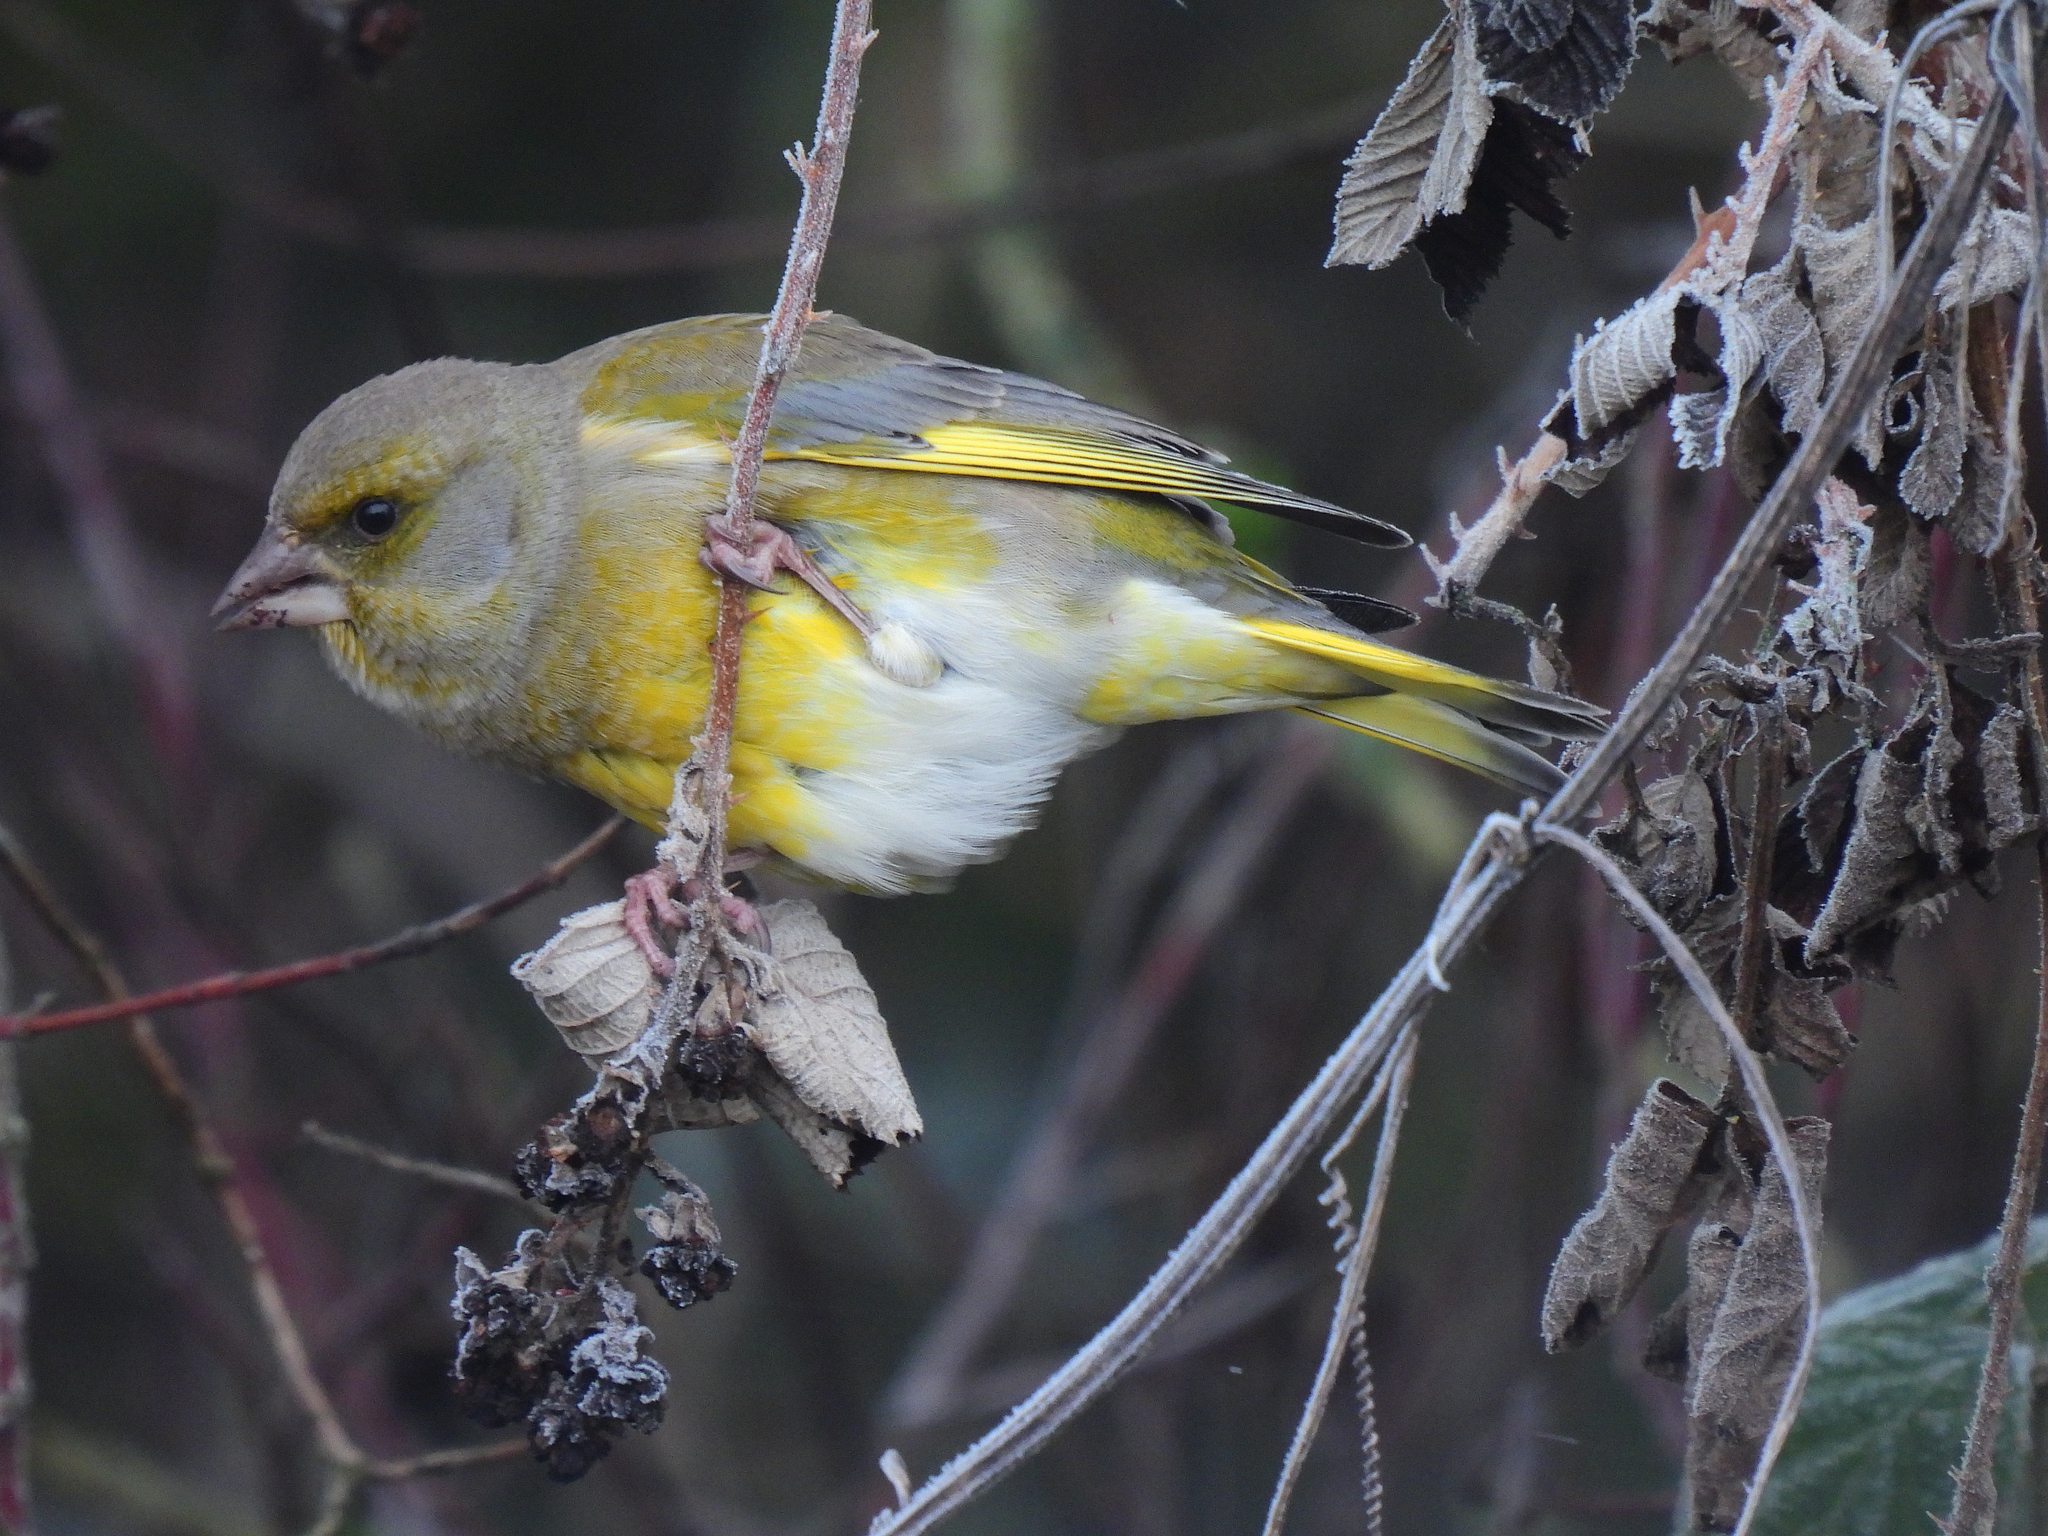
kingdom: Plantae
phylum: Tracheophyta
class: Liliopsida
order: Poales
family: Poaceae
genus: Chloris
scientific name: Chloris chloris
